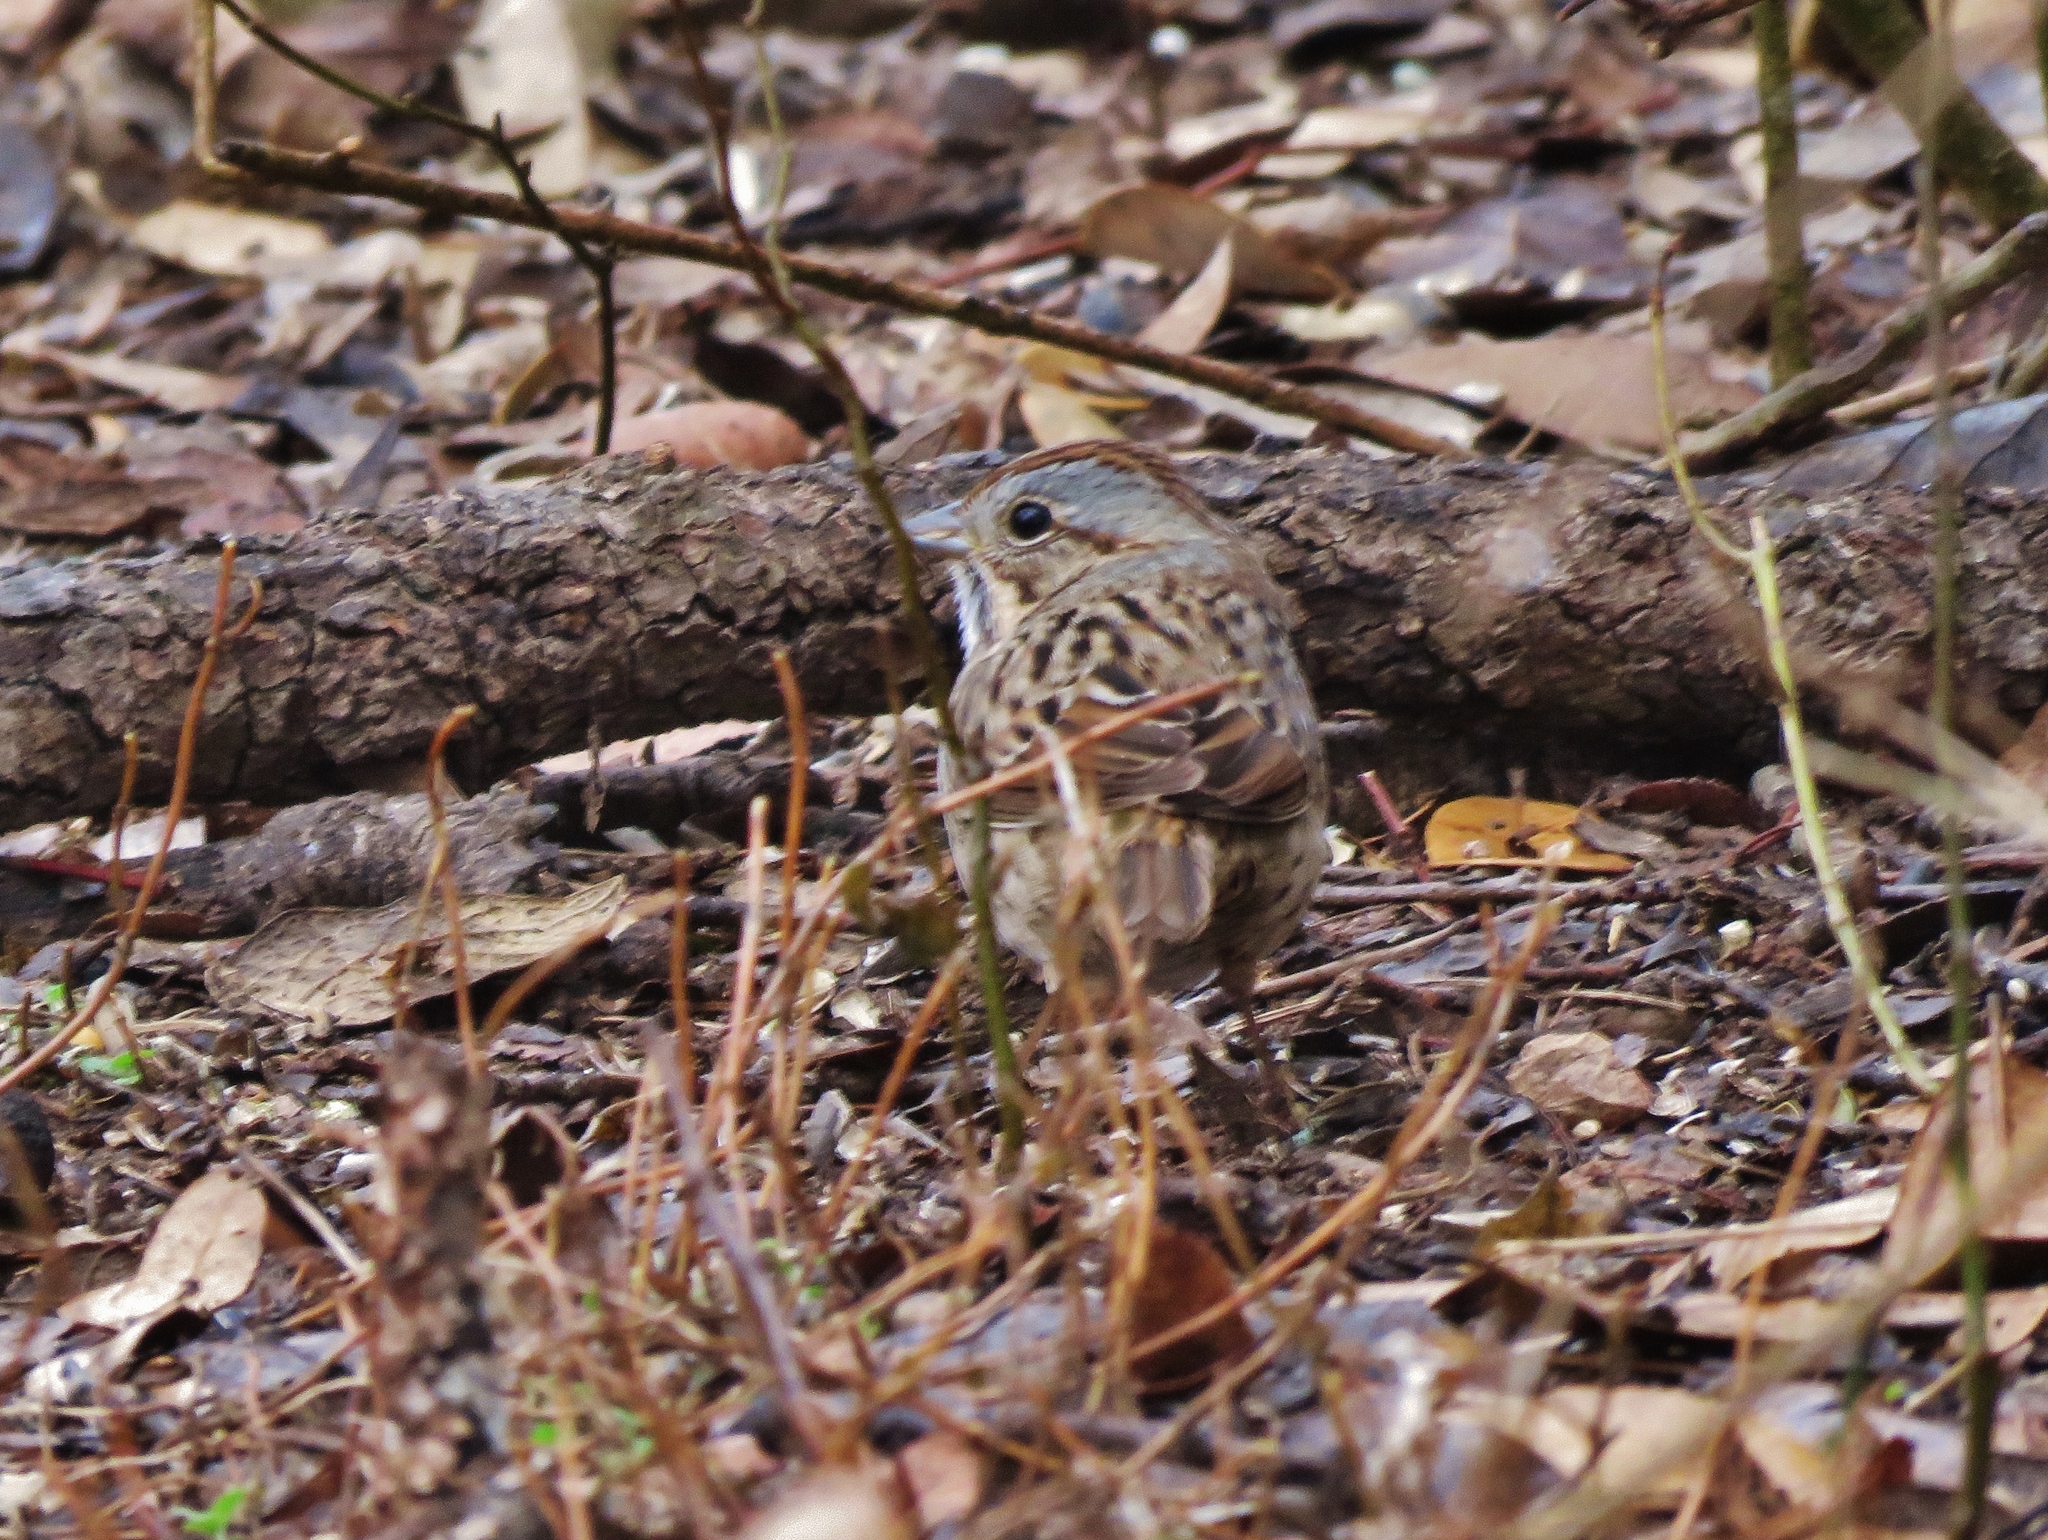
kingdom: Animalia
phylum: Chordata
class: Aves
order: Passeriformes
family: Passerellidae
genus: Melospiza
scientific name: Melospiza lincolnii
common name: Lincoln's sparrow
